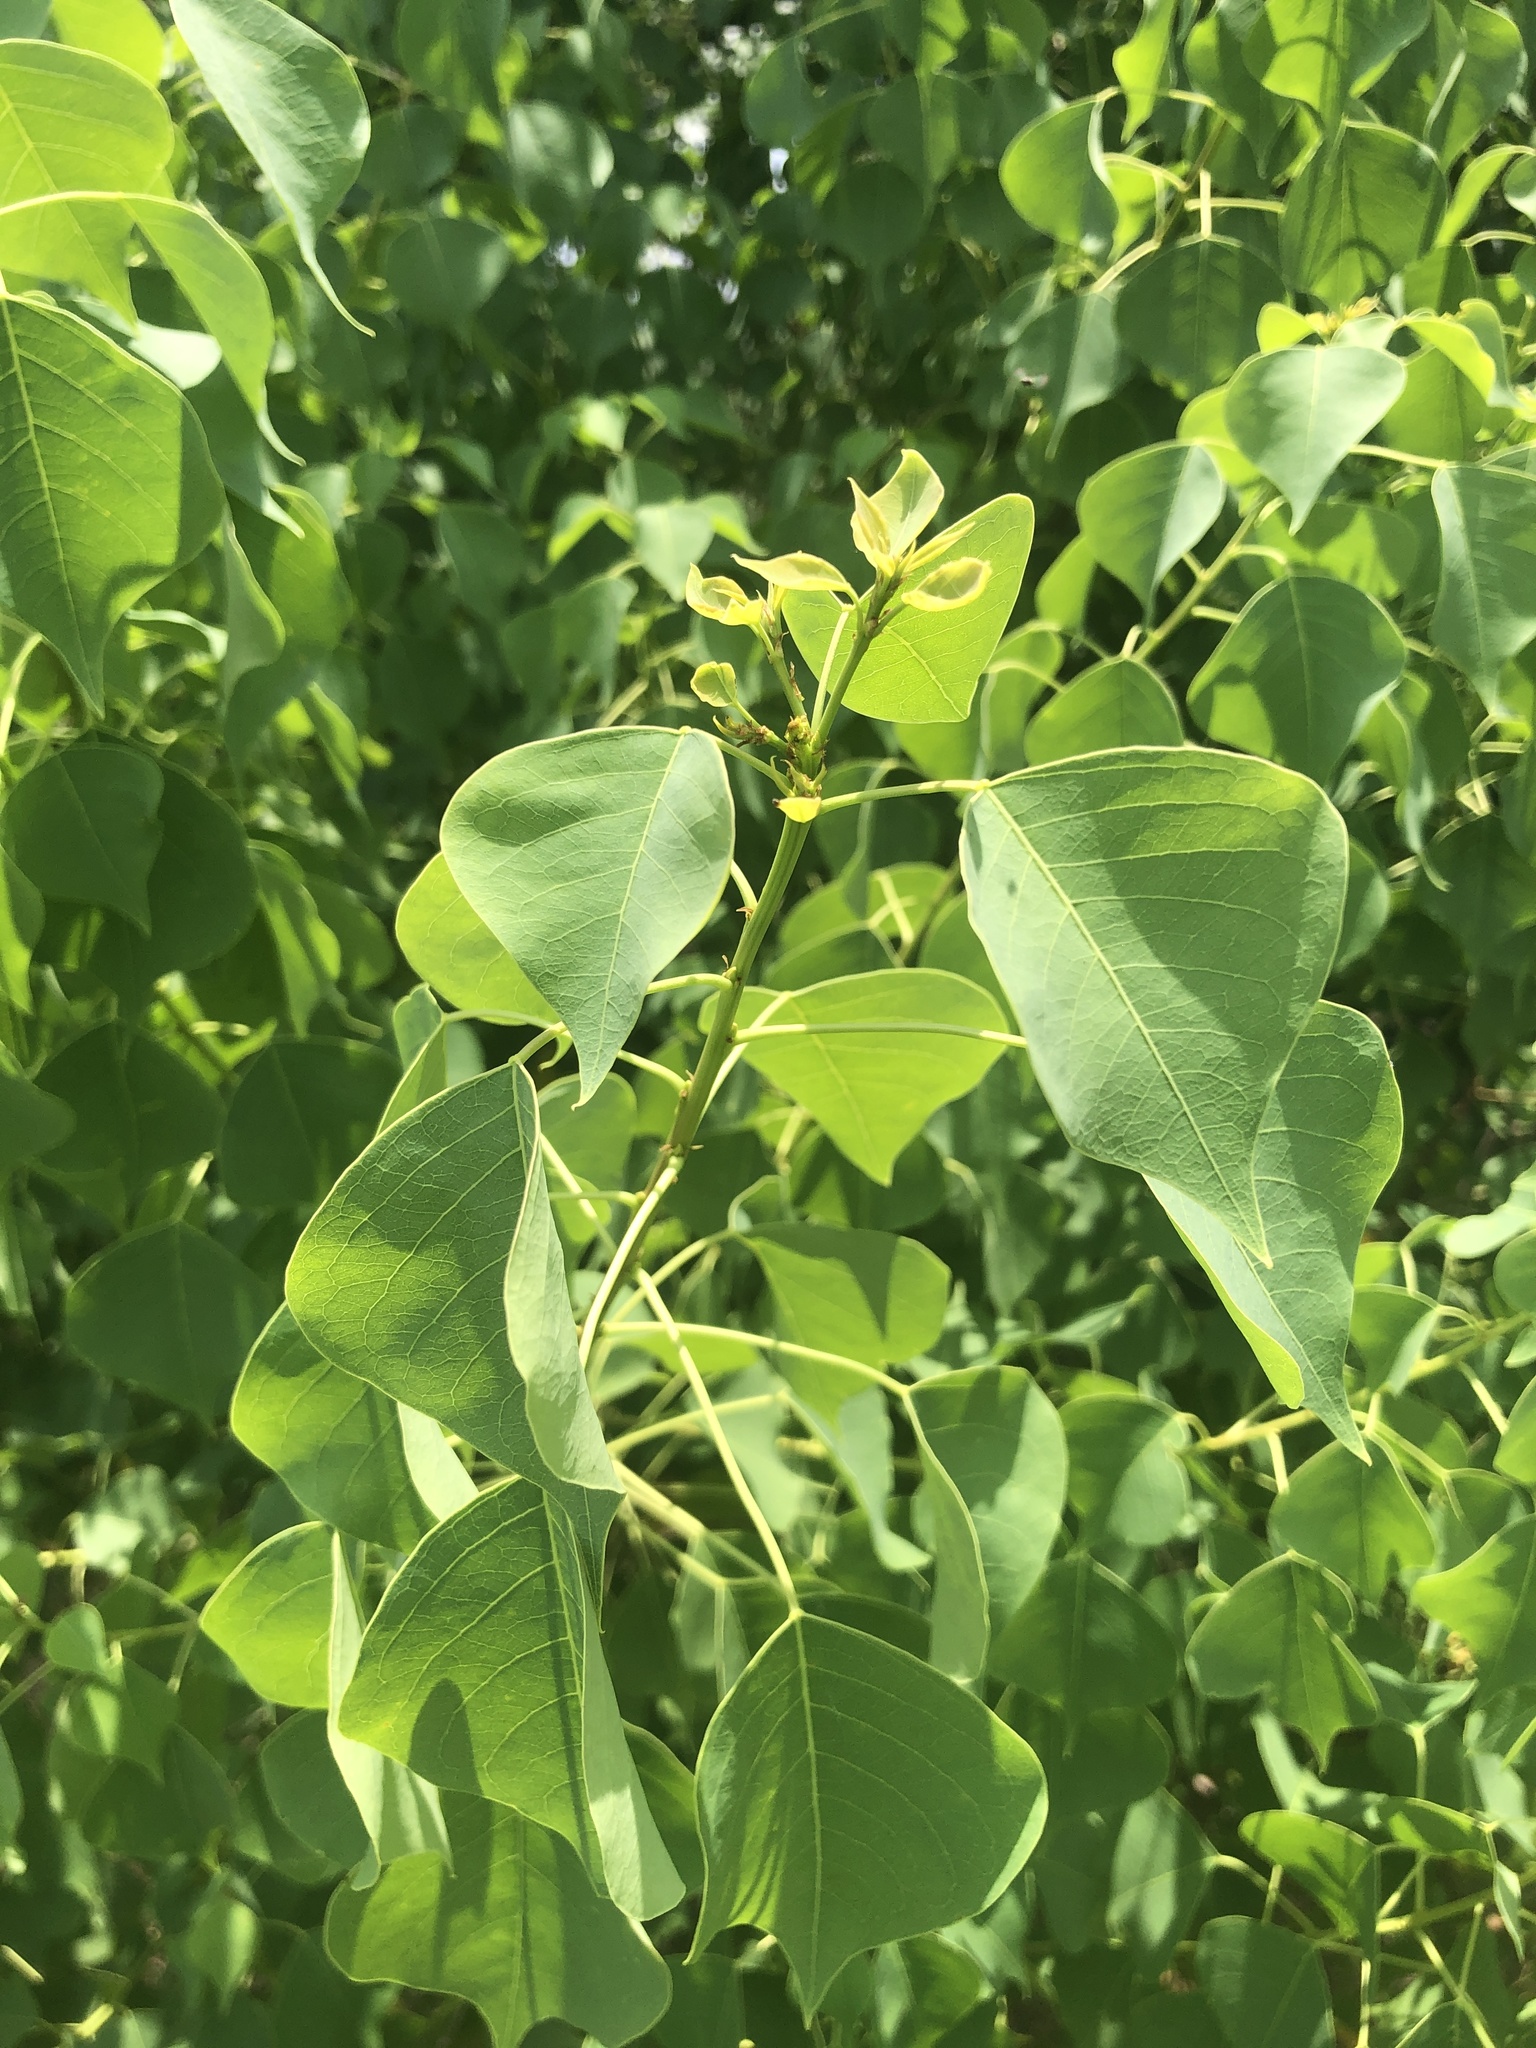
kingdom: Plantae
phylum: Tracheophyta
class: Magnoliopsida
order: Malpighiales
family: Euphorbiaceae
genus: Triadica
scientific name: Triadica sebifera
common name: Chinese tallow
